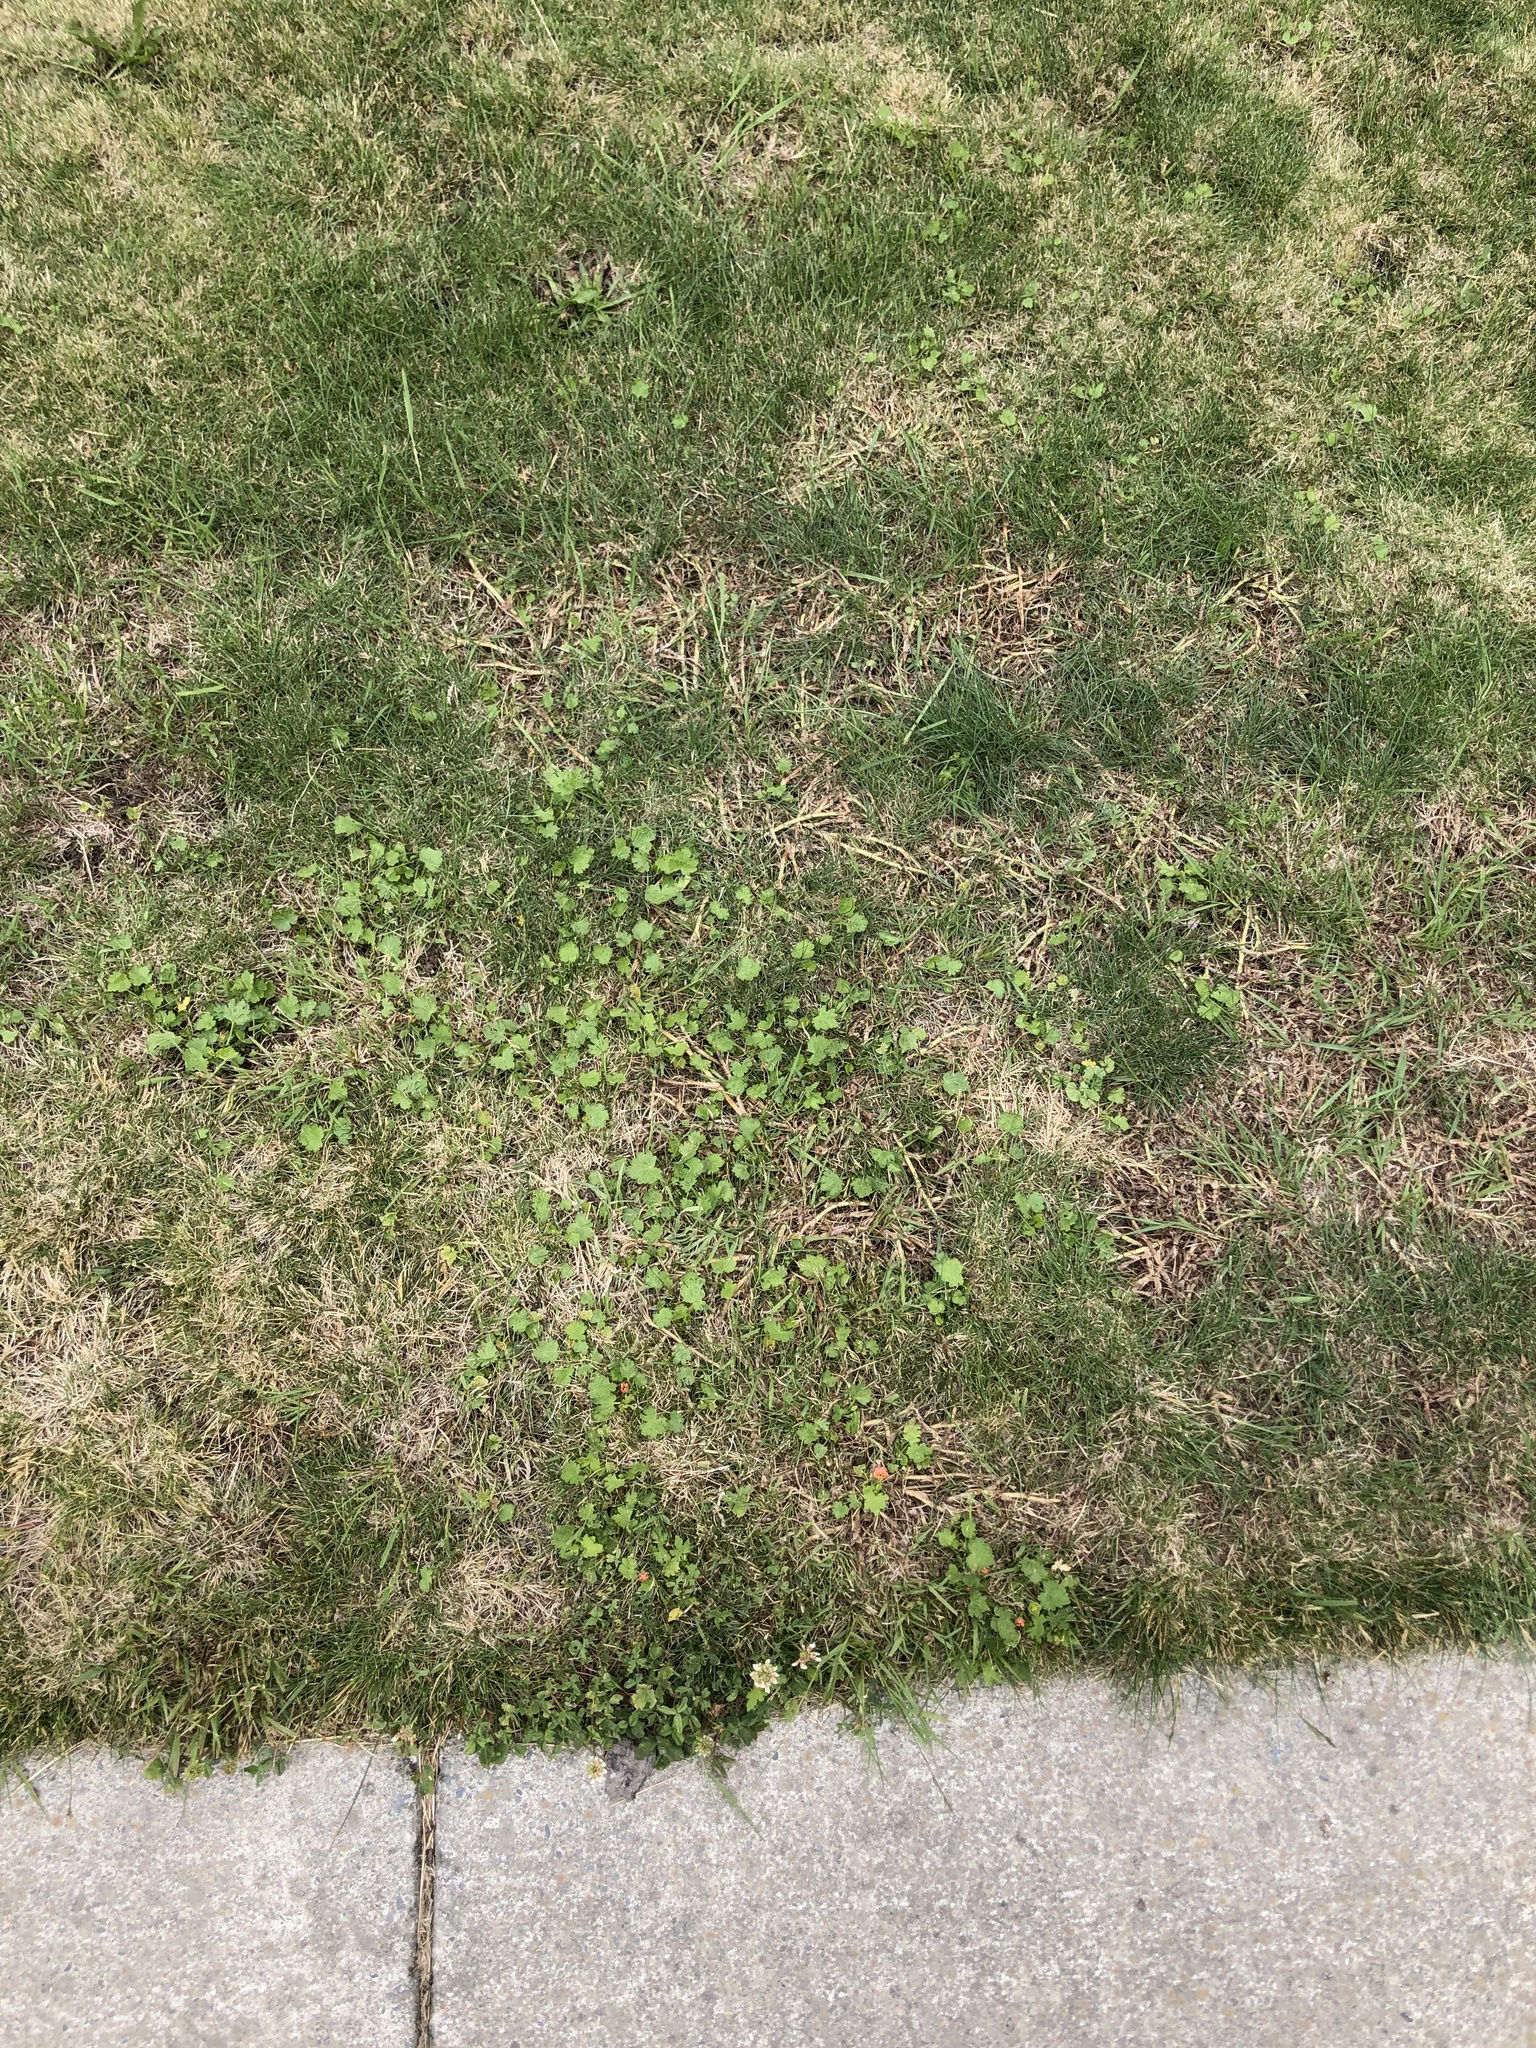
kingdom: Plantae
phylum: Tracheophyta
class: Magnoliopsida
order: Malvales
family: Malvaceae
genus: Modiola
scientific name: Modiola caroliniana
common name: Carolina bristlemallow
